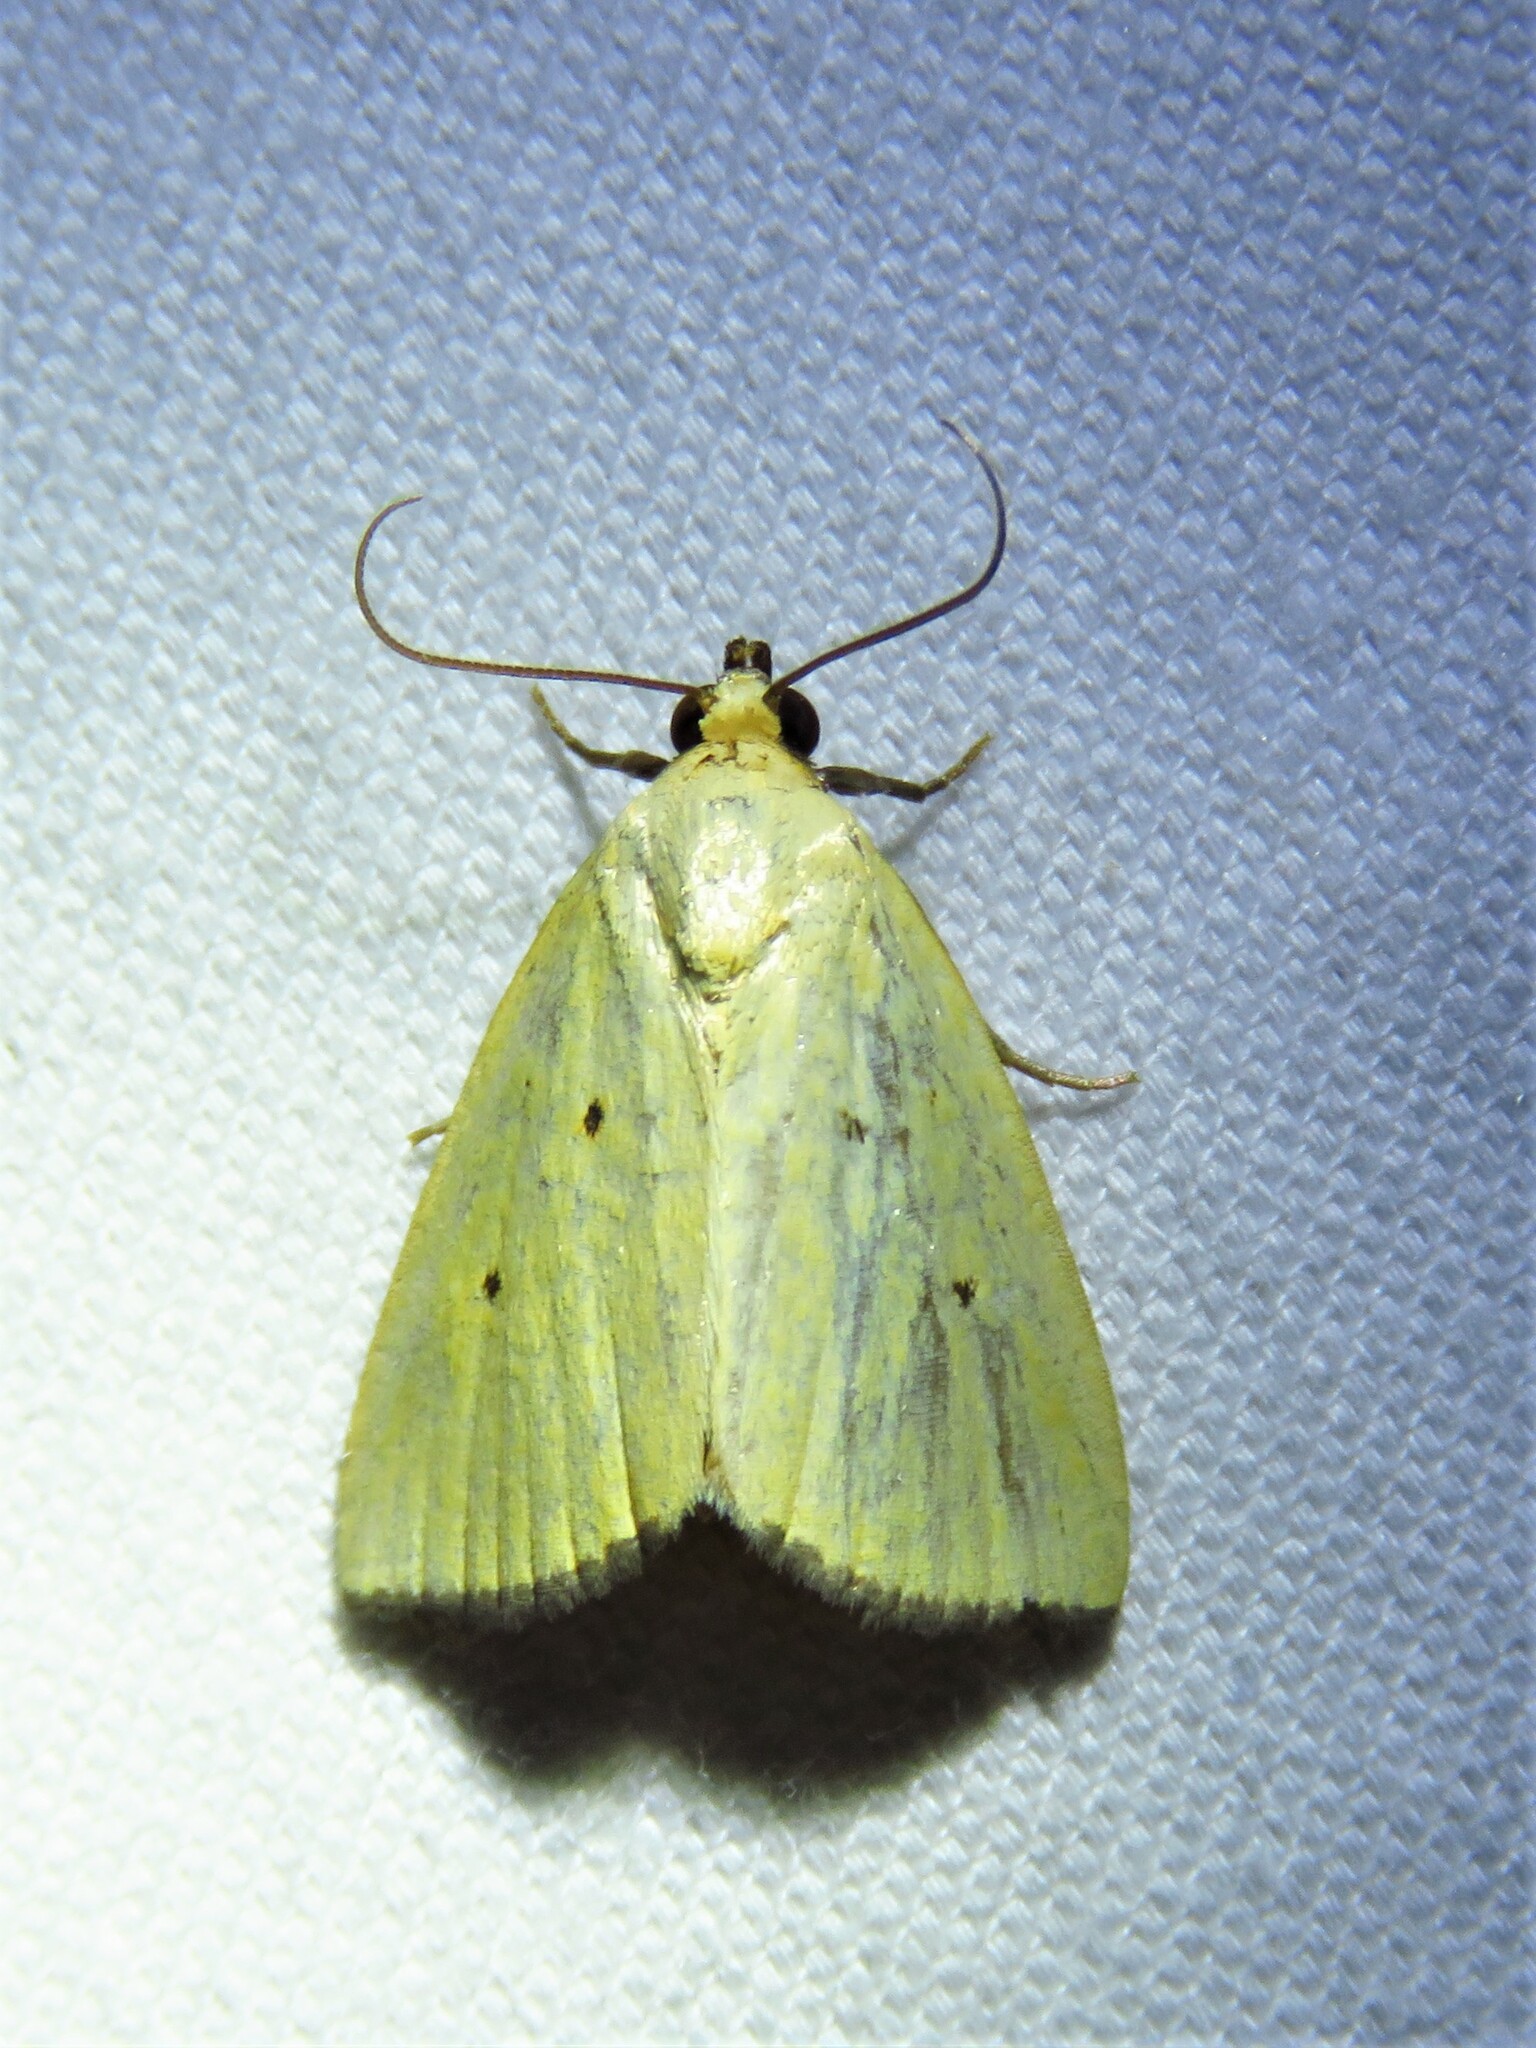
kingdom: Animalia
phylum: Arthropoda
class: Insecta
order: Lepidoptera
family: Noctuidae
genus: Marimatha
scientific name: Marimatha nigrofimbria
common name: Black-bordered lemon moth
